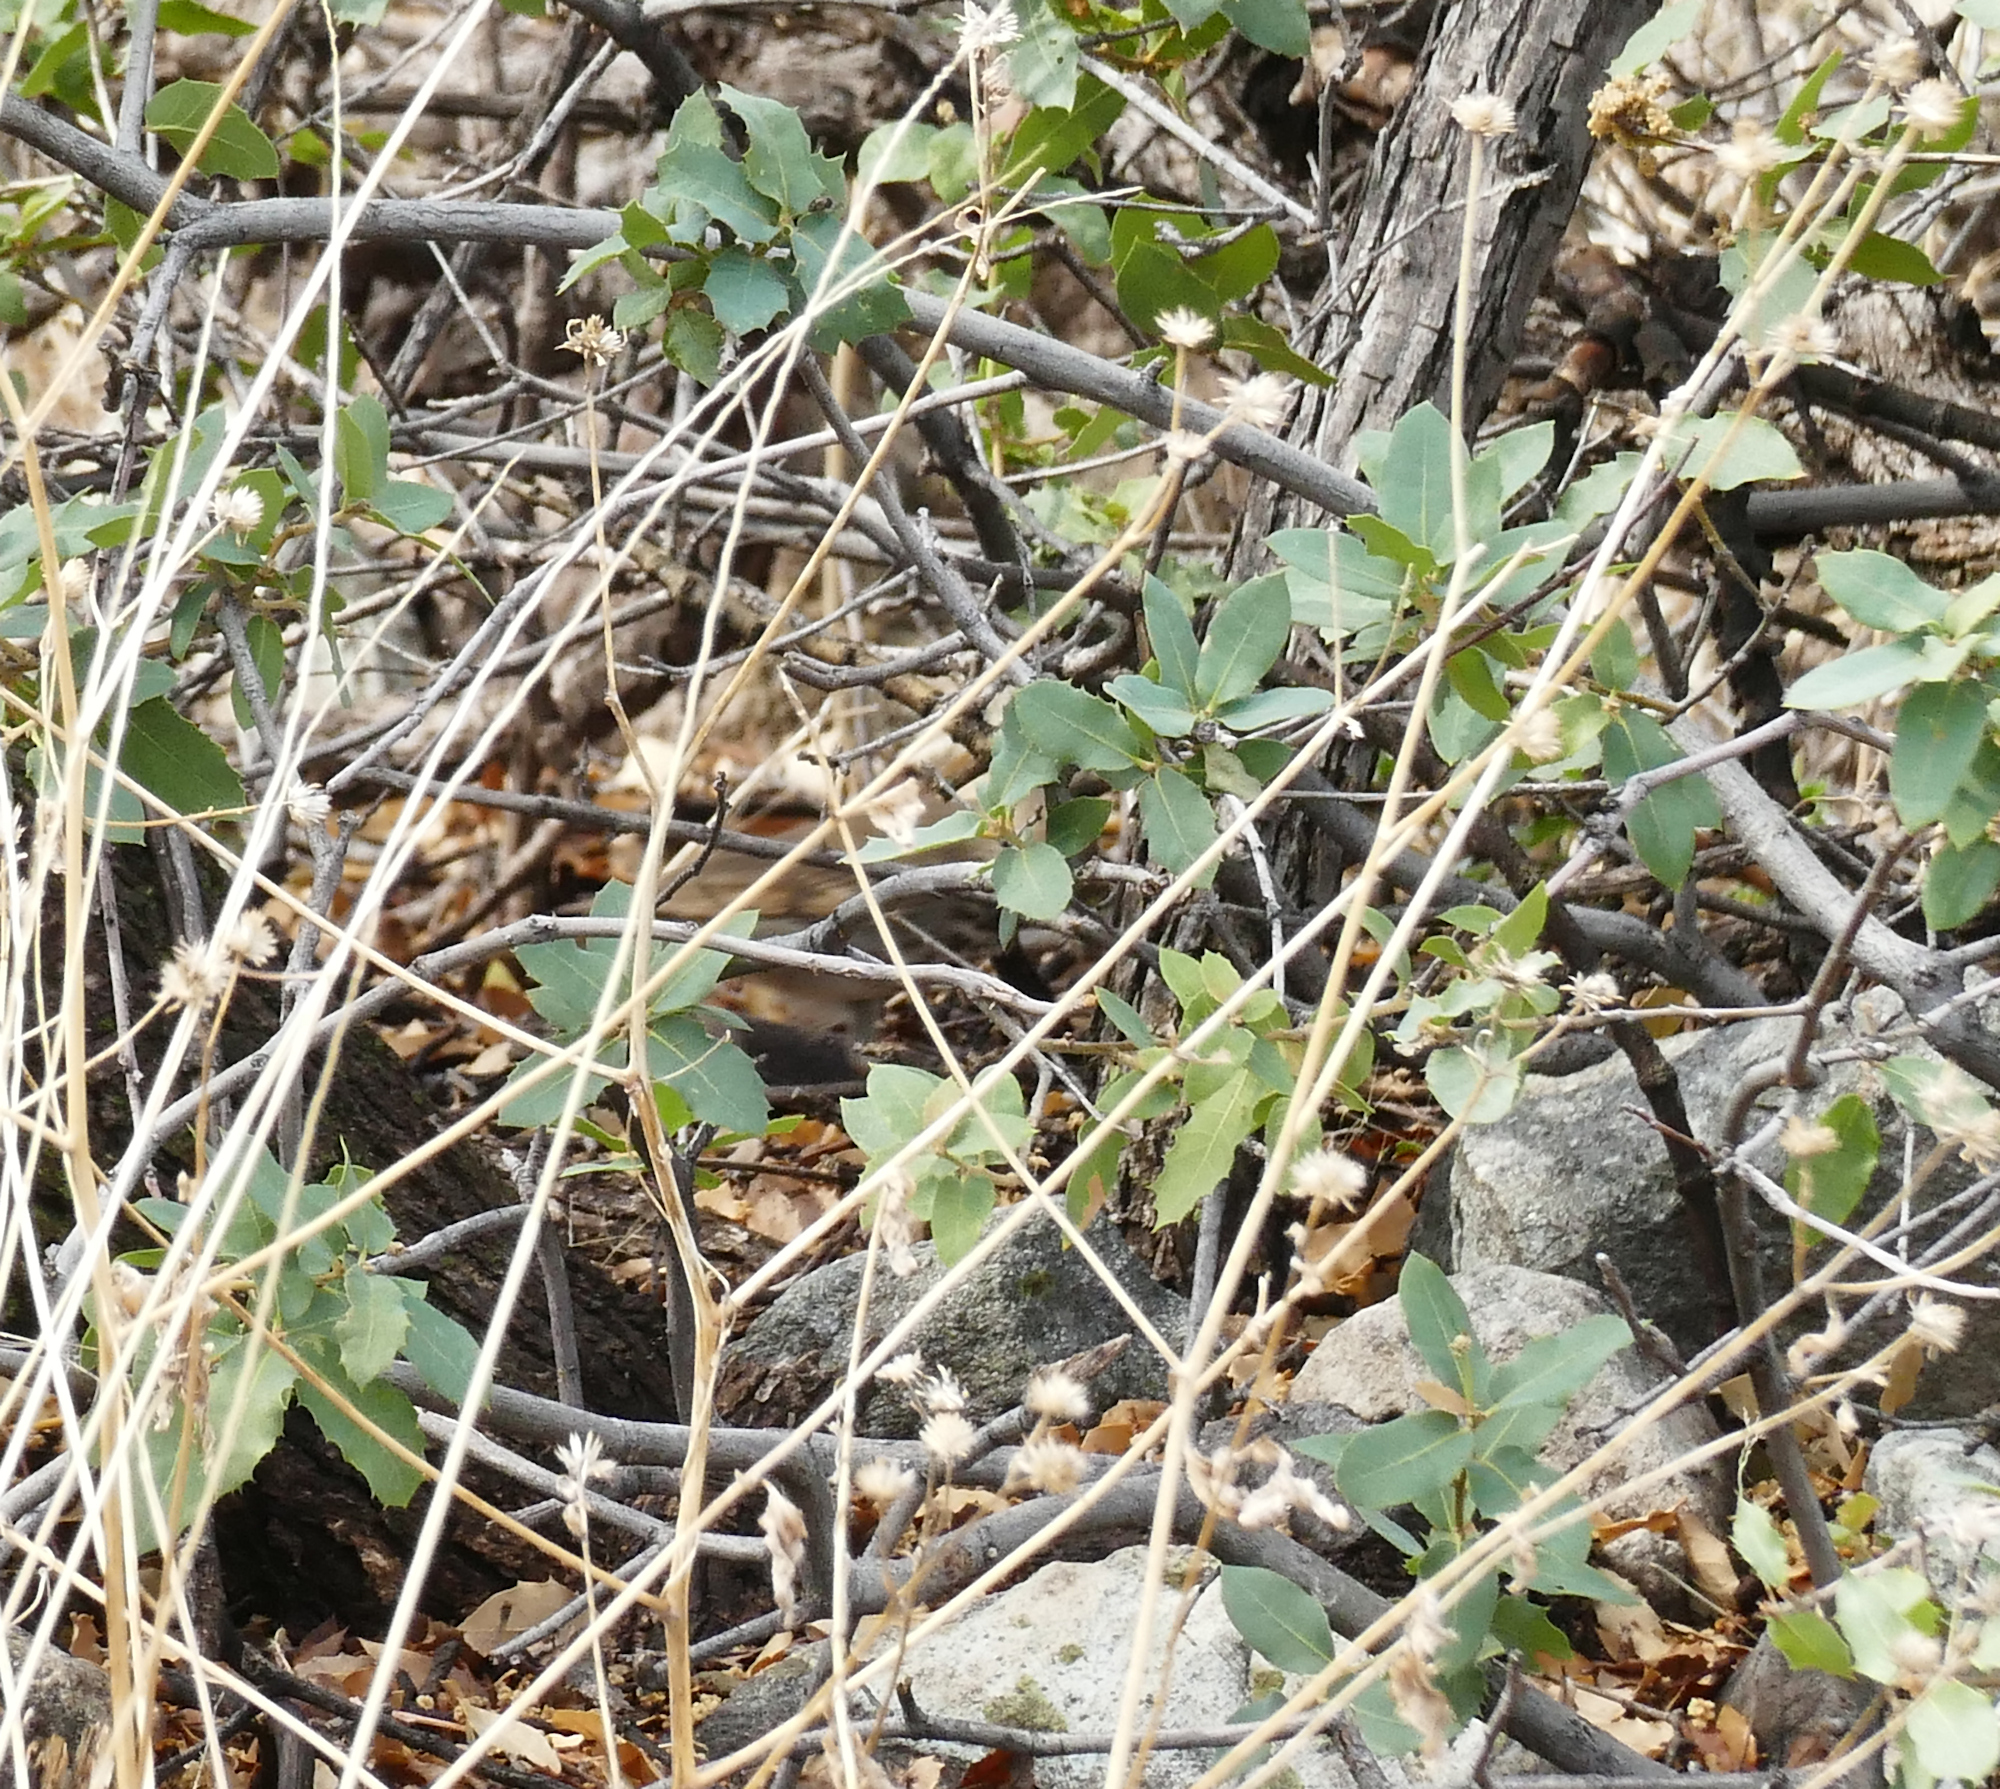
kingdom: Plantae
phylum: Tracheophyta
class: Magnoliopsida
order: Fagales
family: Fagaceae
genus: Quercus
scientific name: Quercus turbinella
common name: Sonoran scrub oak
